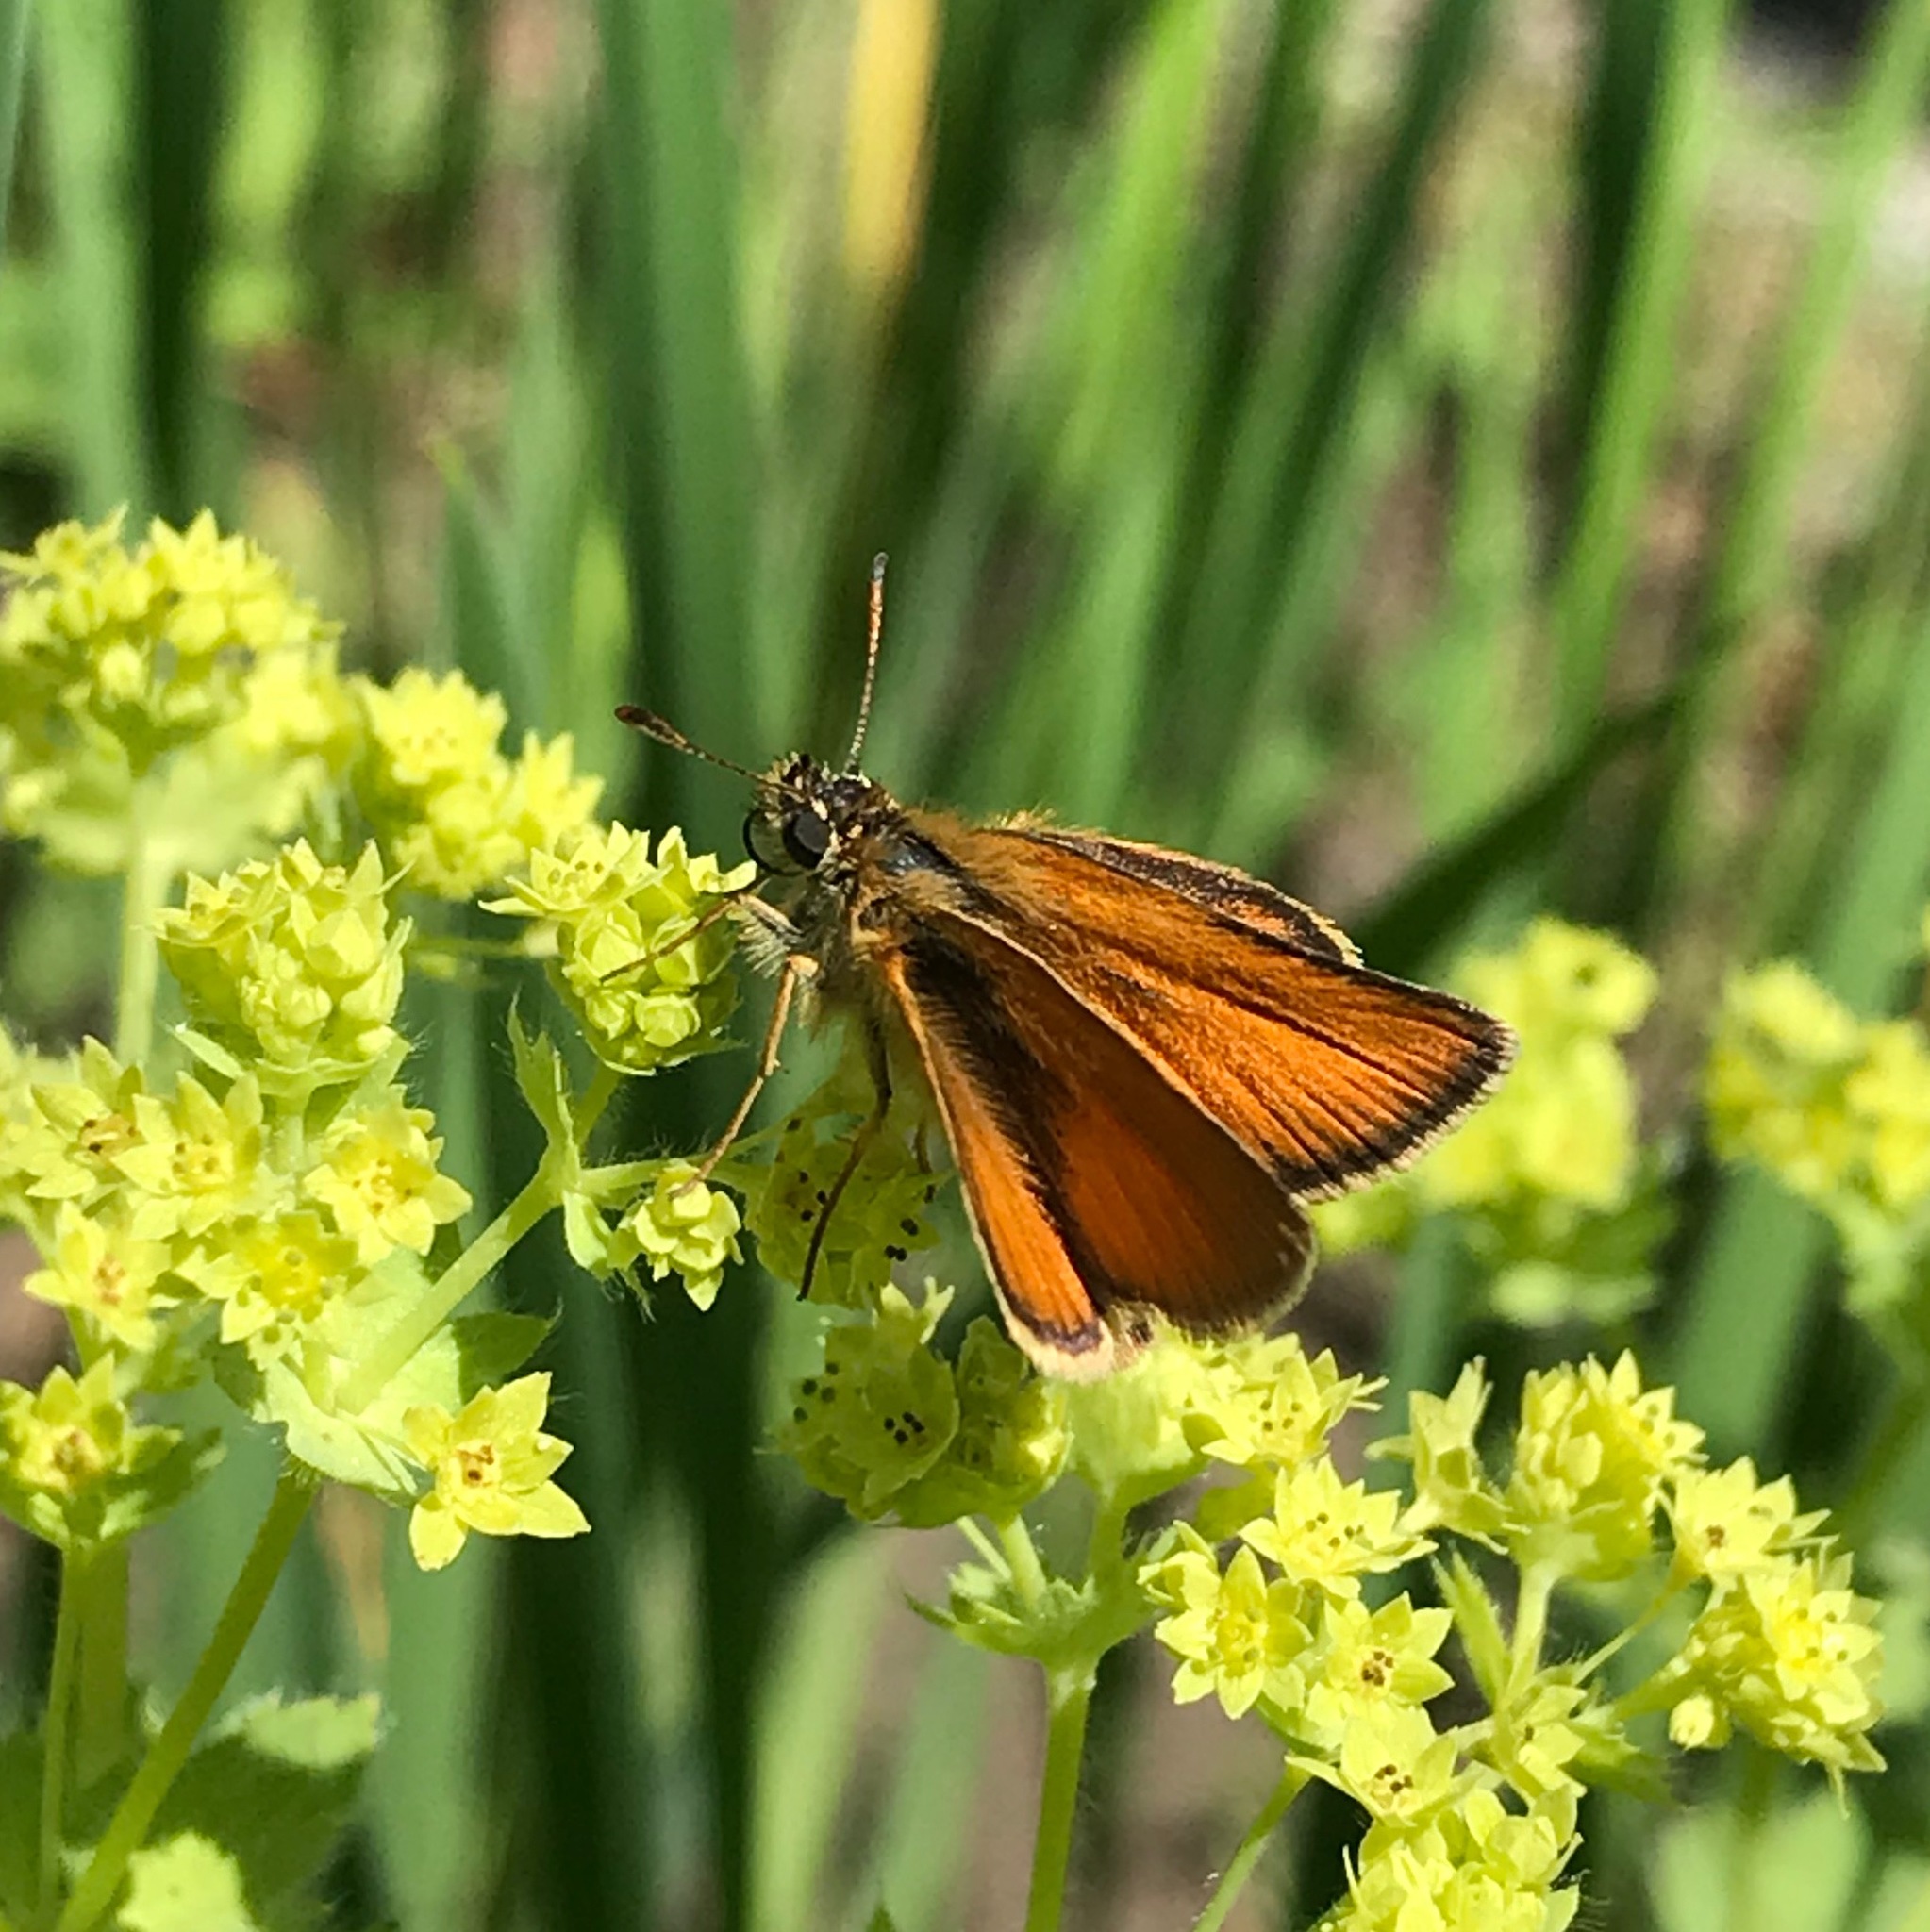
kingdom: Animalia
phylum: Arthropoda
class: Insecta
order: Lepidoptera
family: Hesperiidae
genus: Thymelicus
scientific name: Thymelicus lineola
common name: Essex skipper
